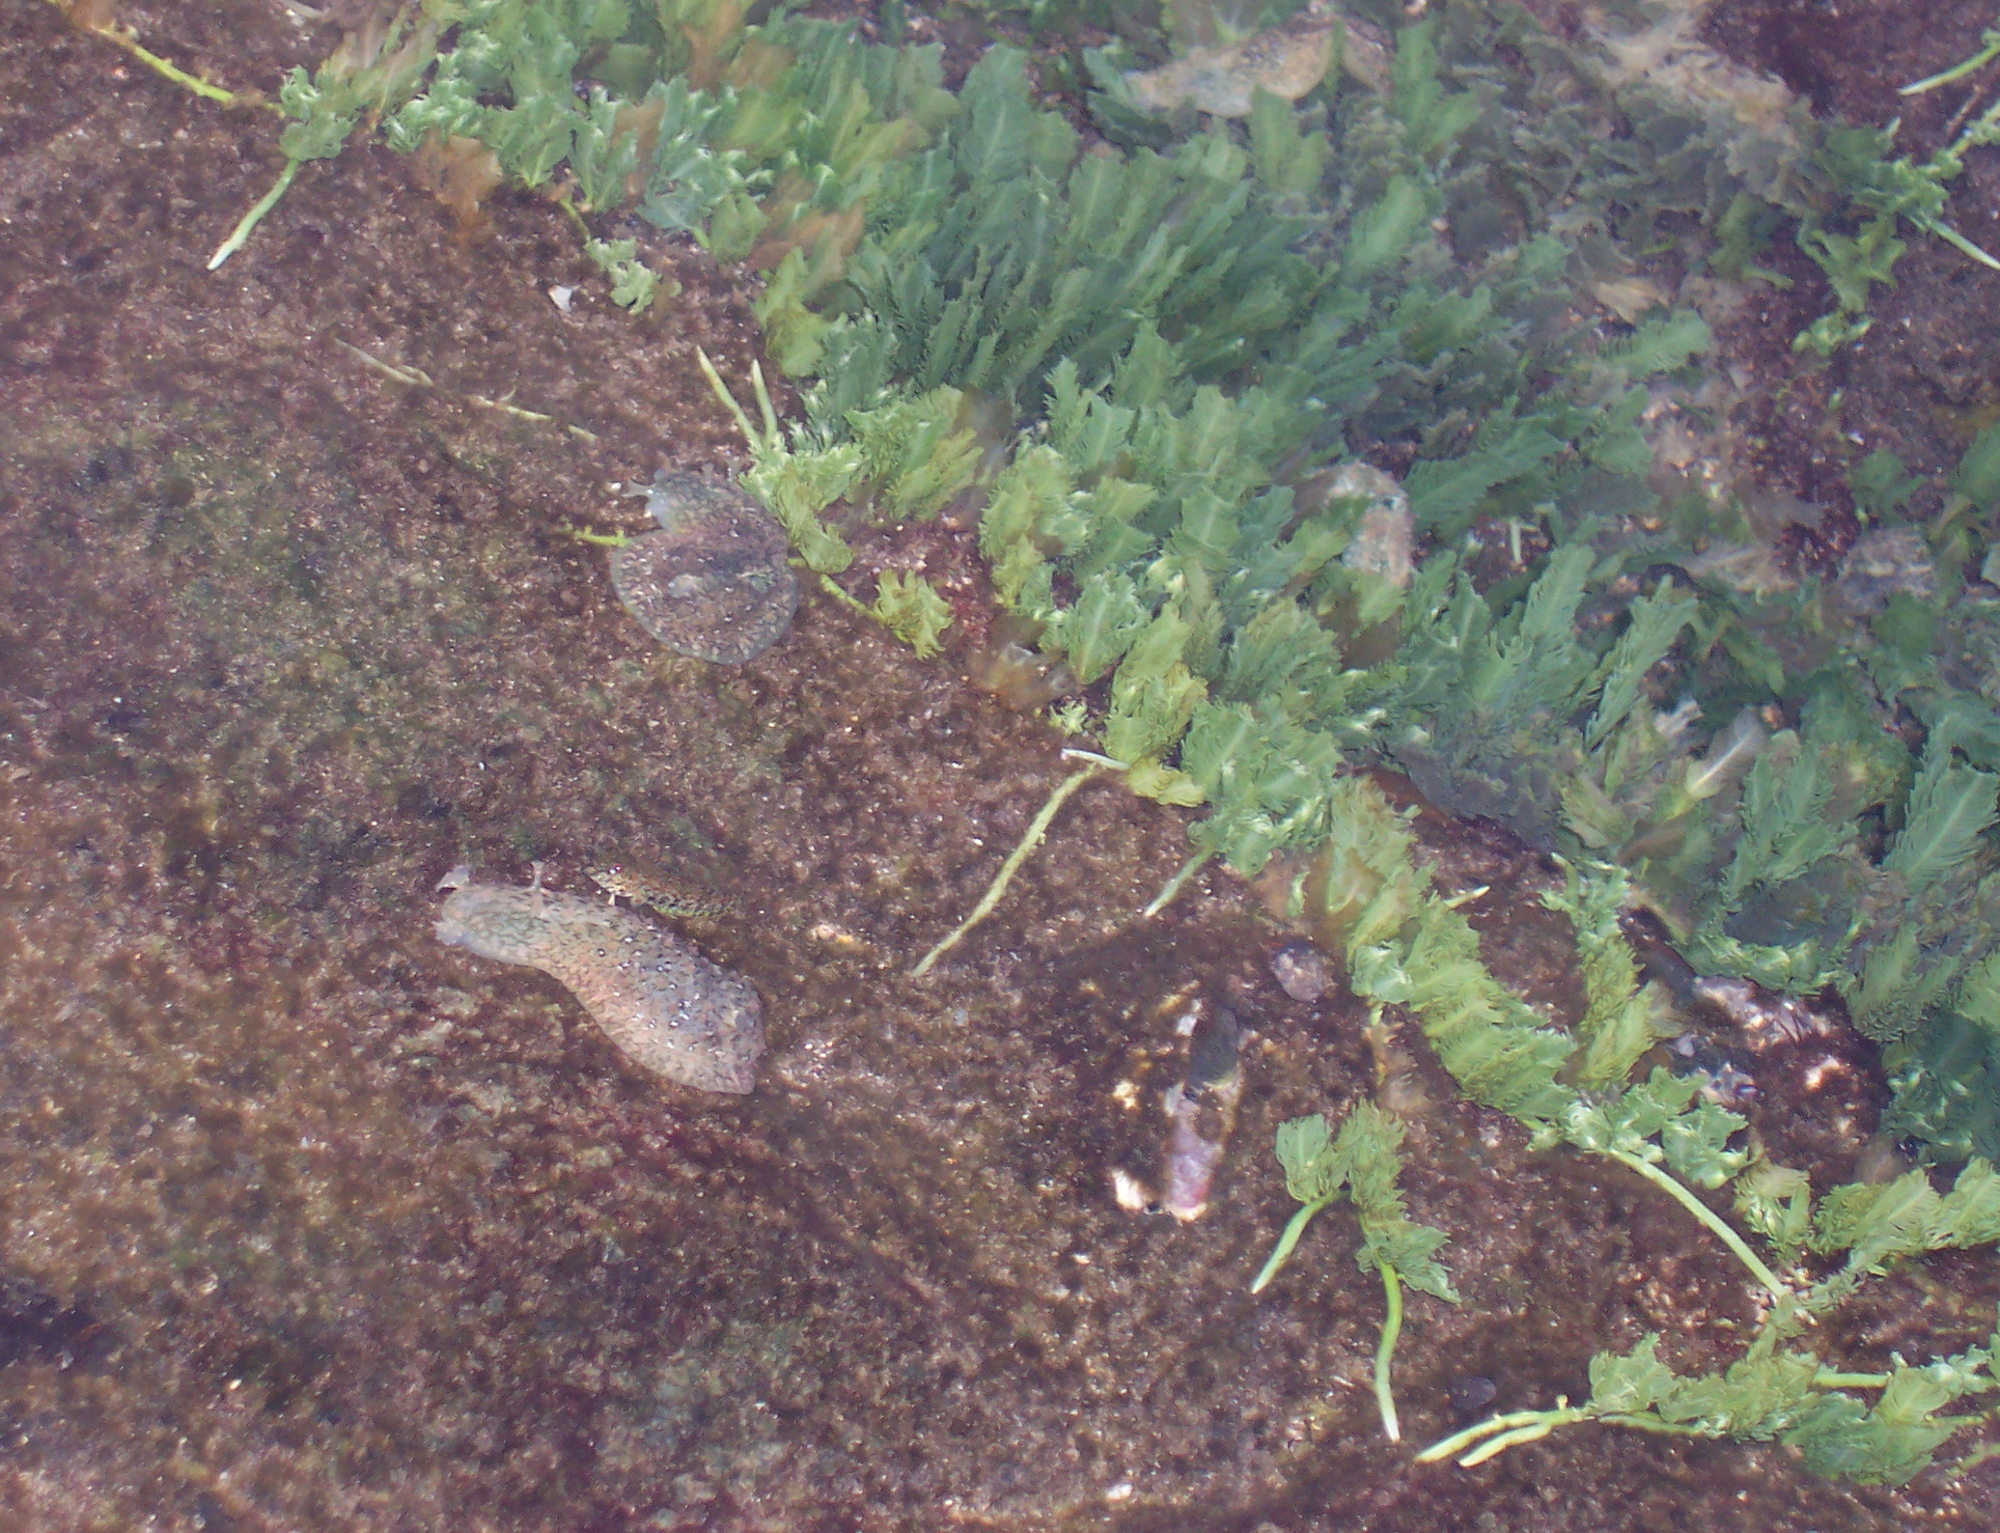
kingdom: Animalia
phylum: Mollusca
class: Gastropoda
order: Aplysiida
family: Aplysiidae
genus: Dolabrifera
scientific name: Dolabrifera nicaraguana
